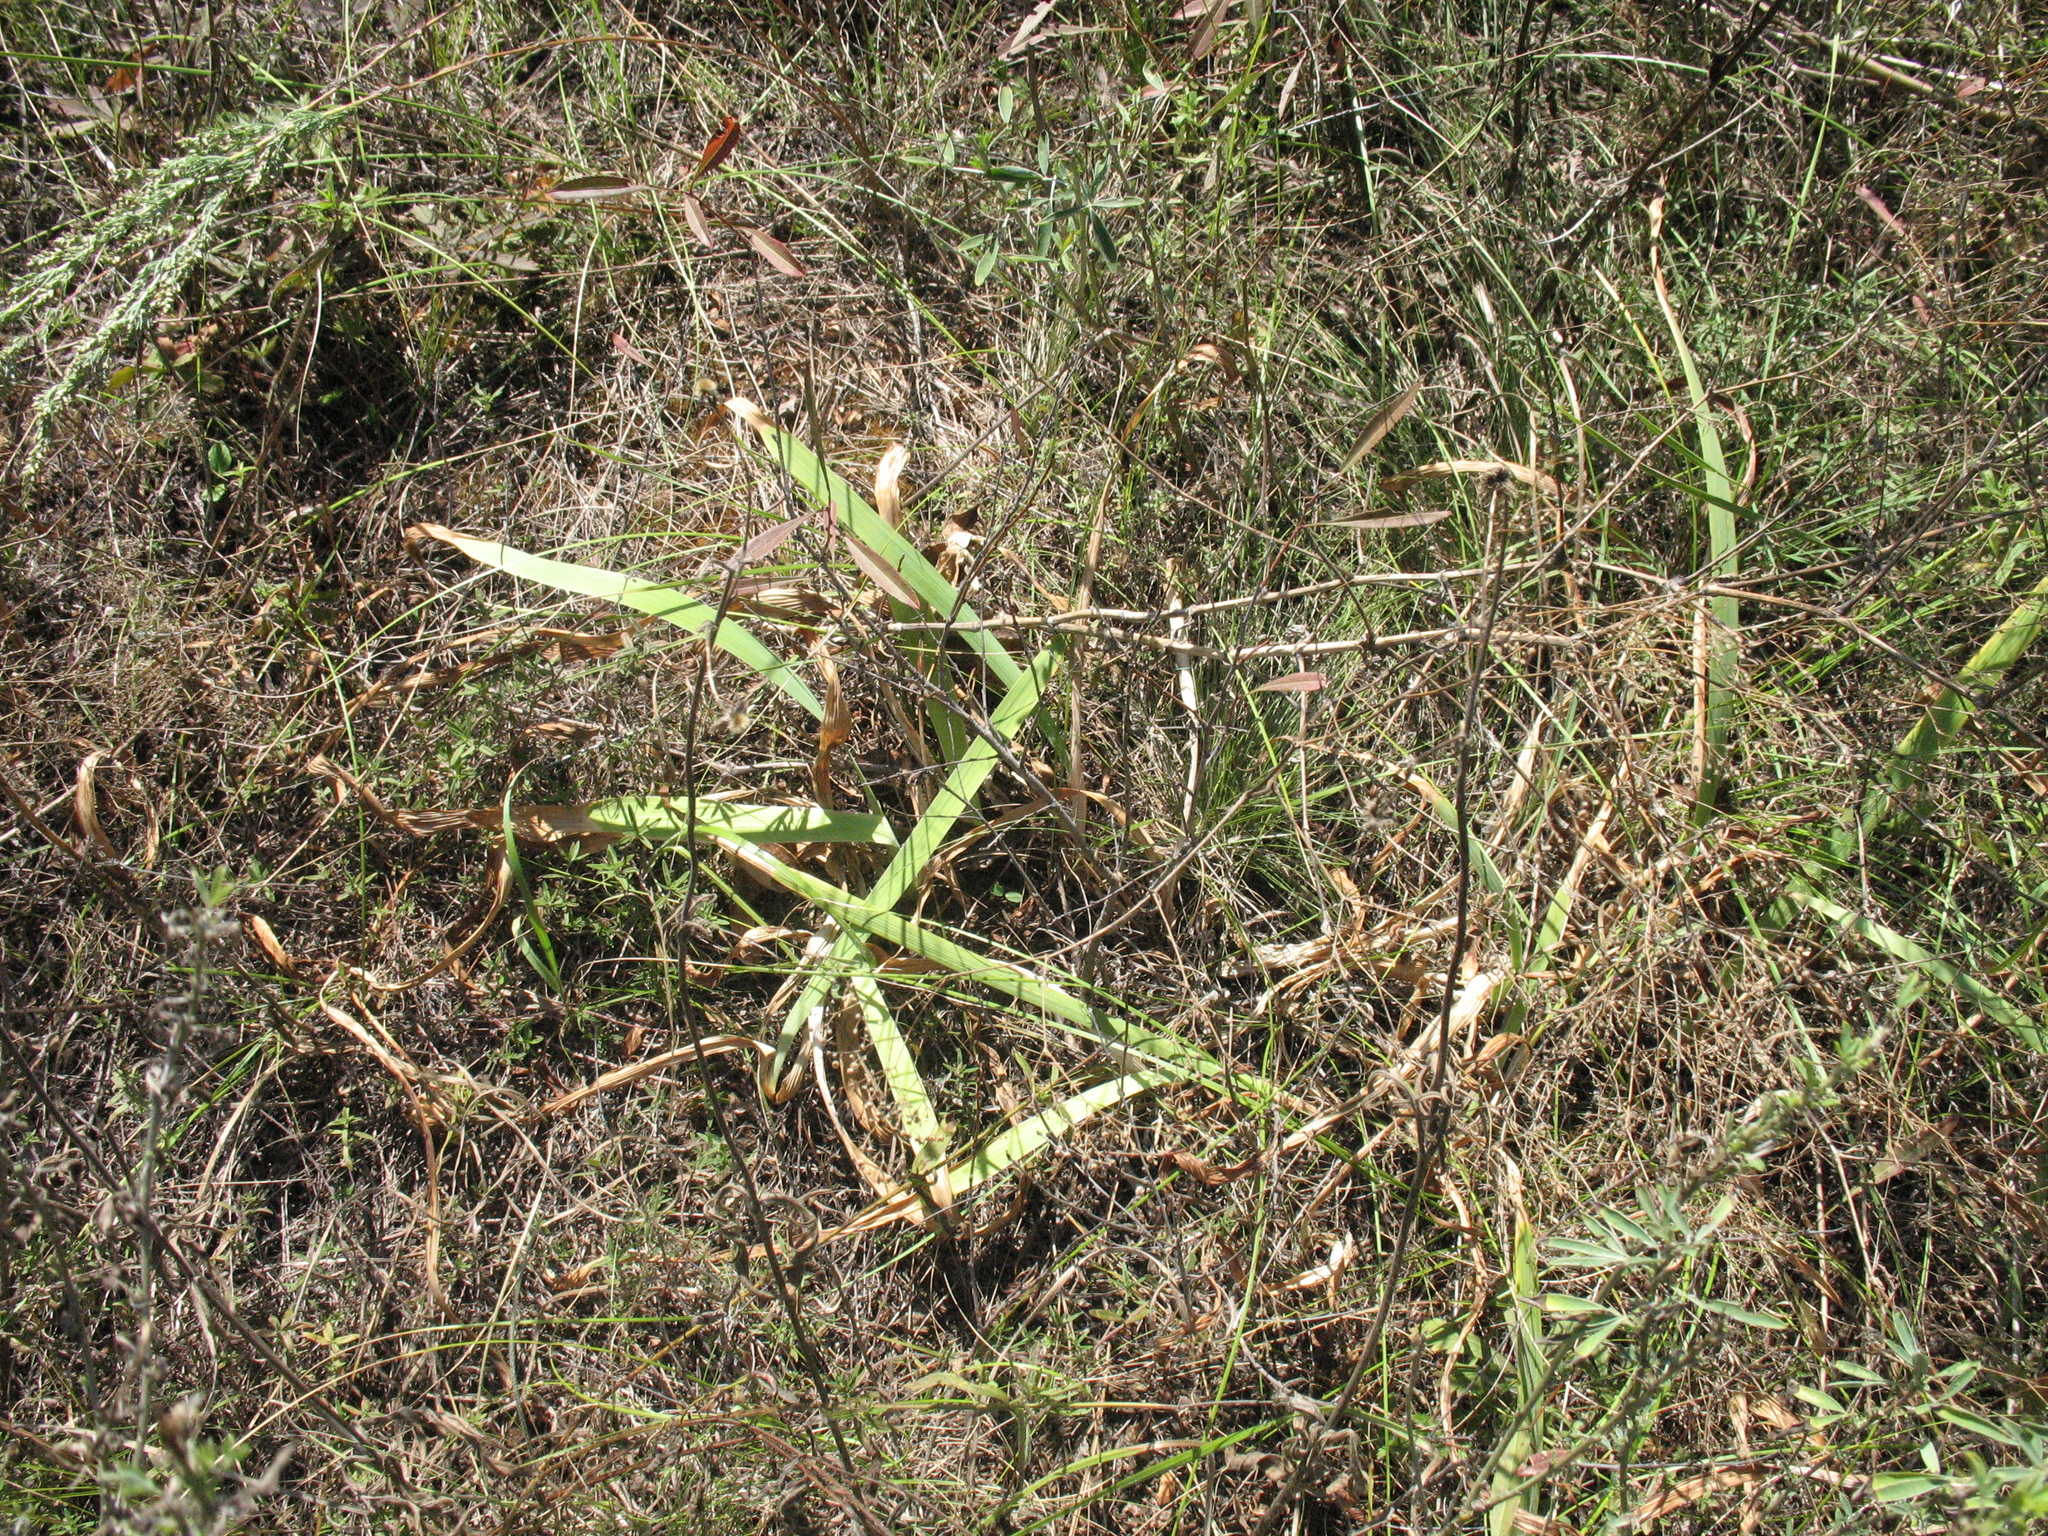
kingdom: Plantae
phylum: Tracheophyta
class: Liliopsida
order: Asparagales
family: Iridaceae
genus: Iris
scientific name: Iris aphylla
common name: Stool iris
